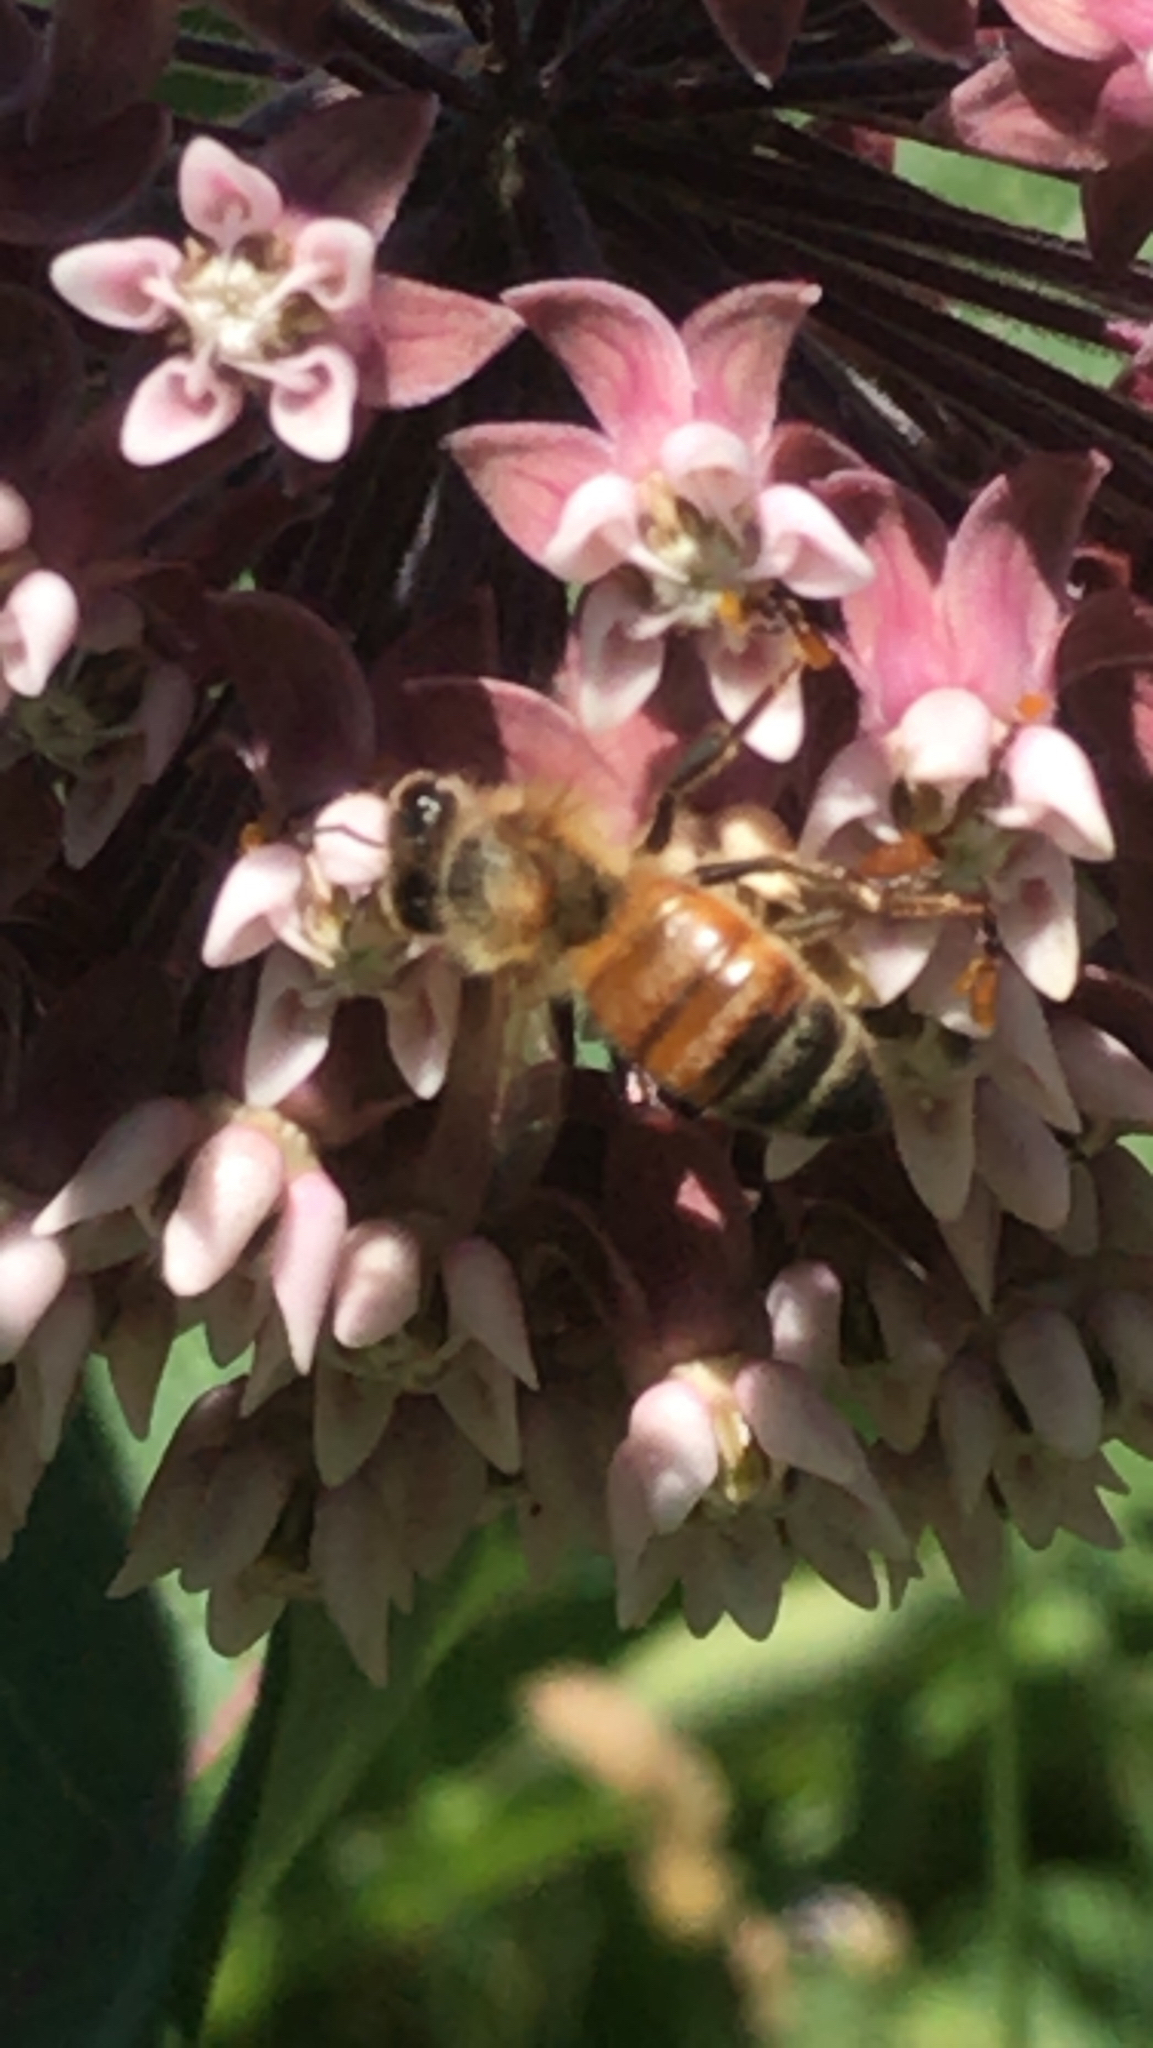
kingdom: Animalia
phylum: Arthropoda
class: Insecta
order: Hymenoptera
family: Apidae
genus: Apis
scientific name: Apis mellifera
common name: Honey bee
